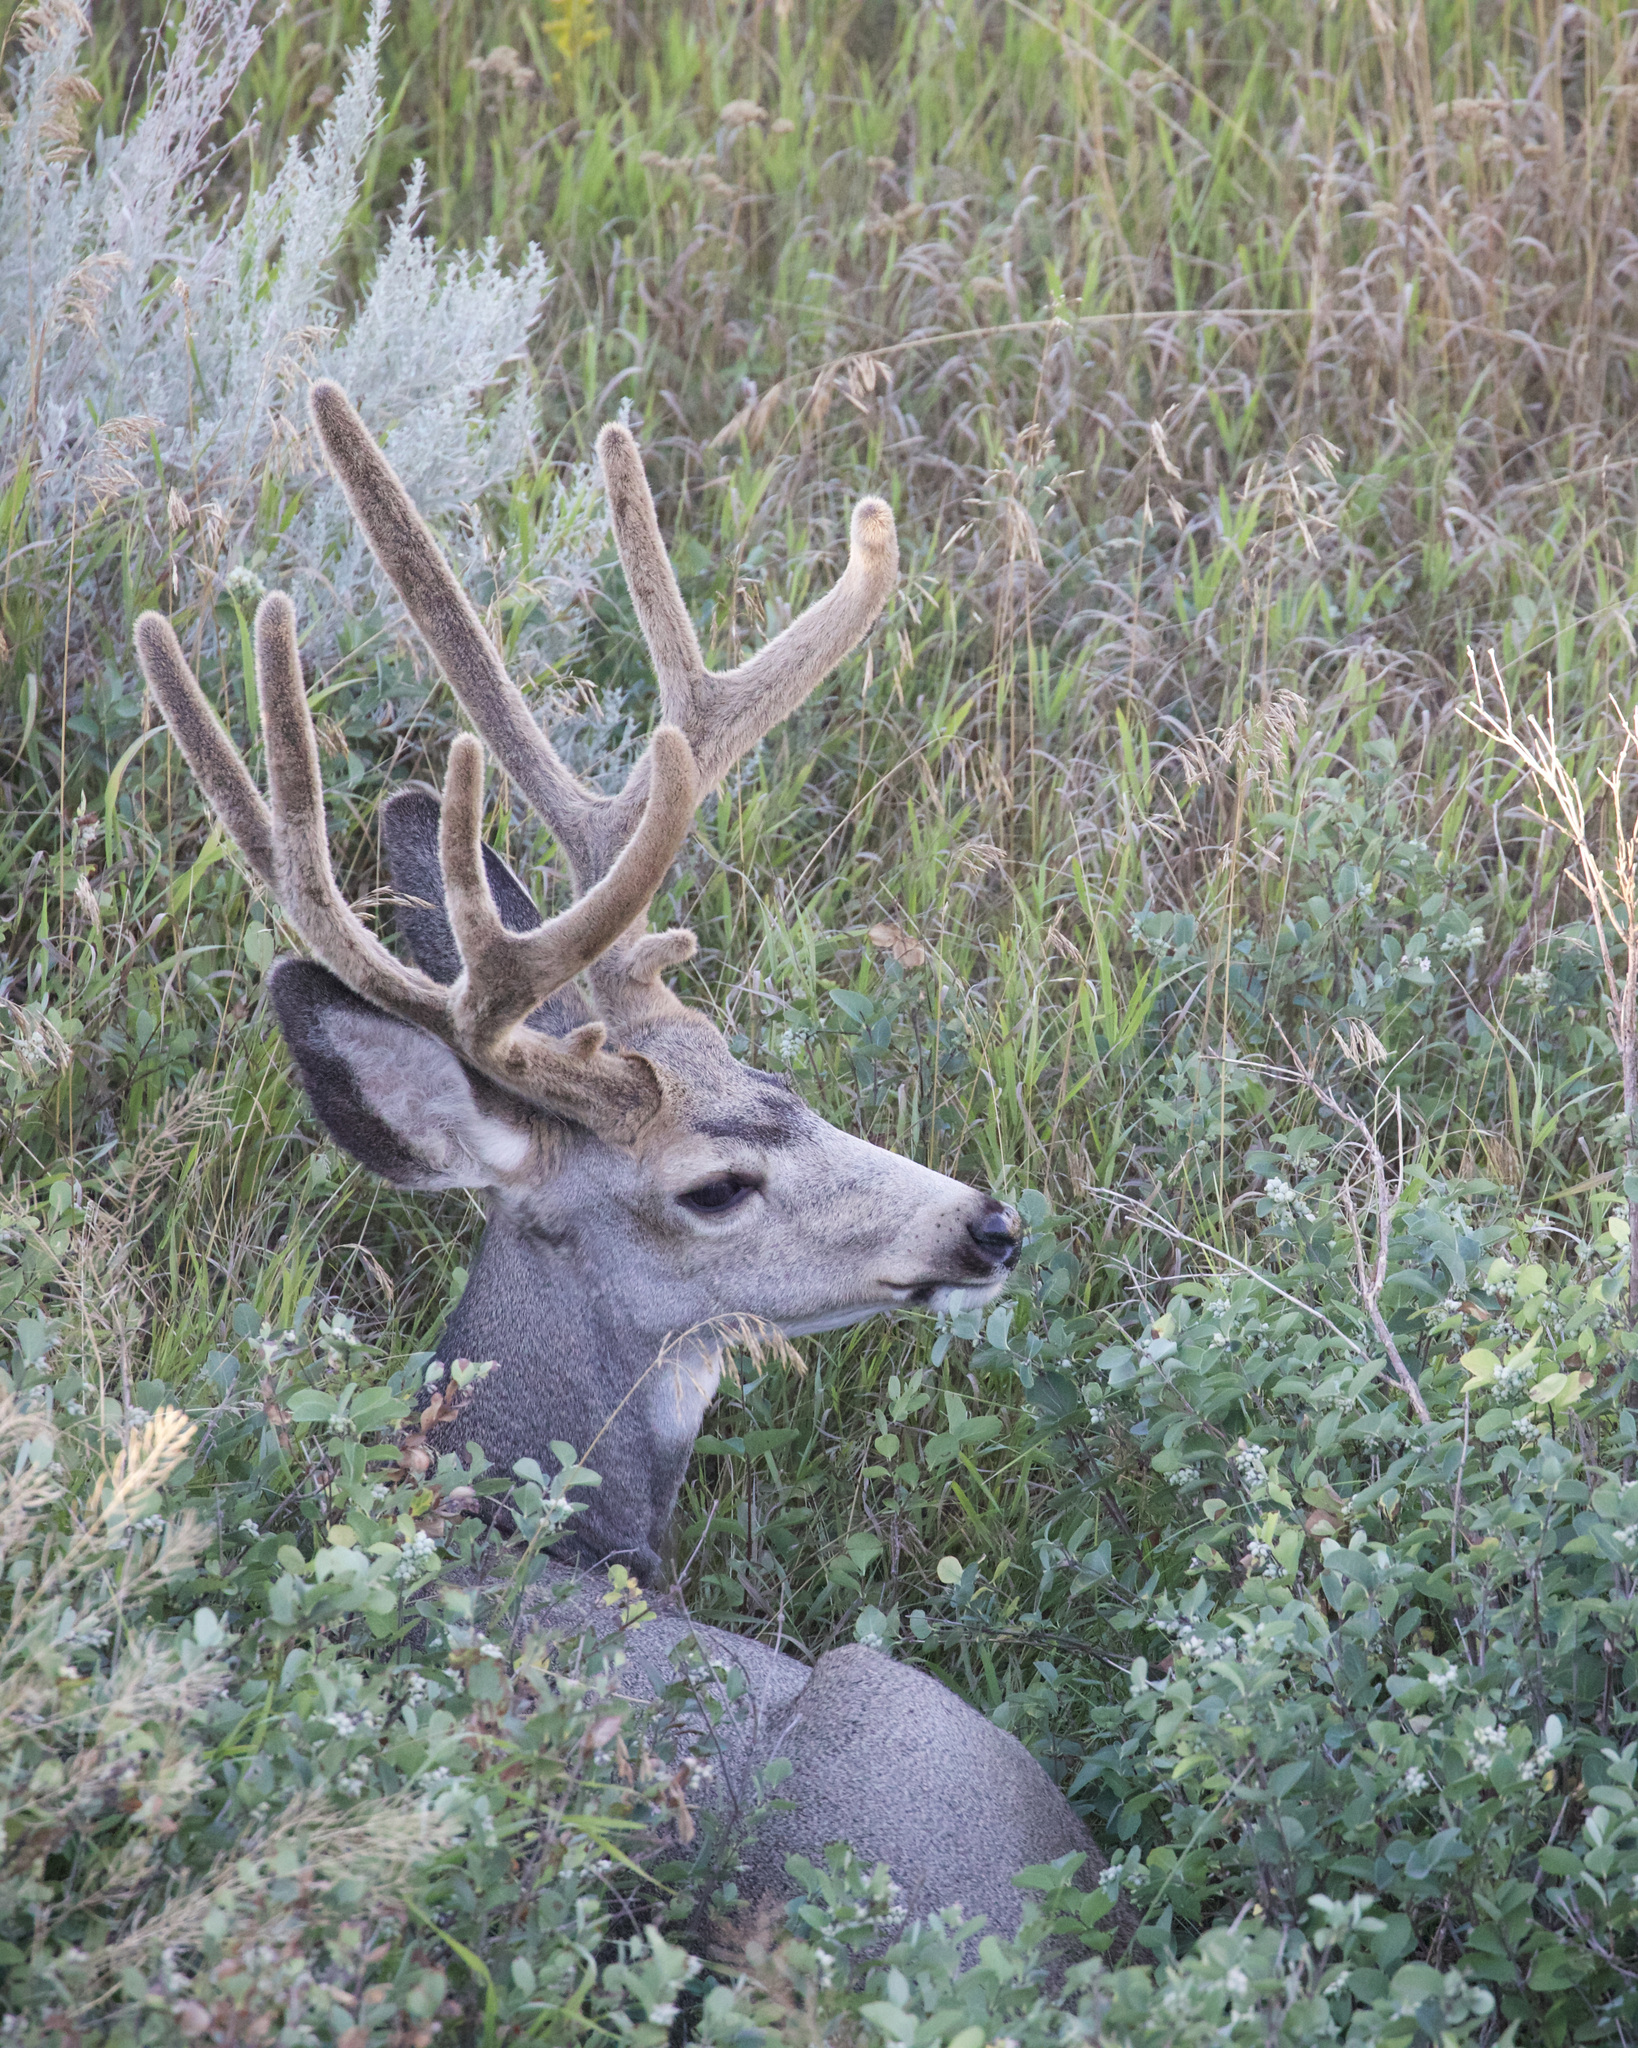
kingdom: Animalia
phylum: Chordata
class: Mammalia
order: Artiodactyla
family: Cervidae
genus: Odocoileus
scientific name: Odocoileus hemionus
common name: Mule deer
